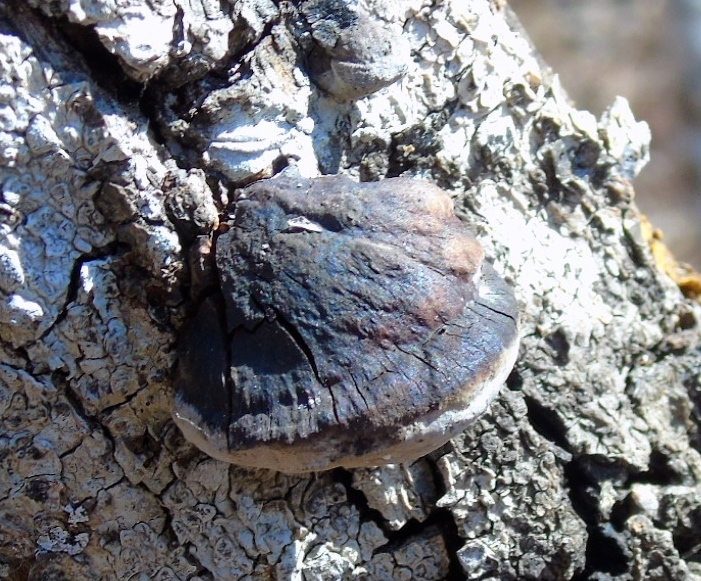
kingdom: Fungi
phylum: Basidiomycota
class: Agaricomycetes
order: Hymenochaetales
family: Hymenochaetaceae
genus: Phellinus
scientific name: Phellinus
